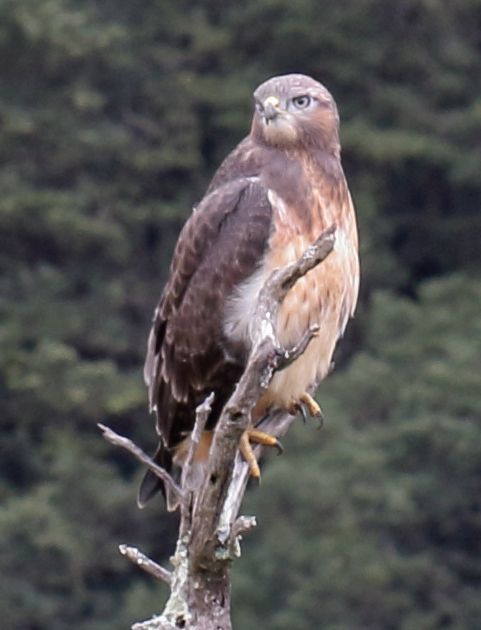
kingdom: Animalia
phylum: Chordata
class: Aves
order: Accipitriformes
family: Accipitridae
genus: Buteo
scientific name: Buteo rufofuscus
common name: Jackal buzzard
